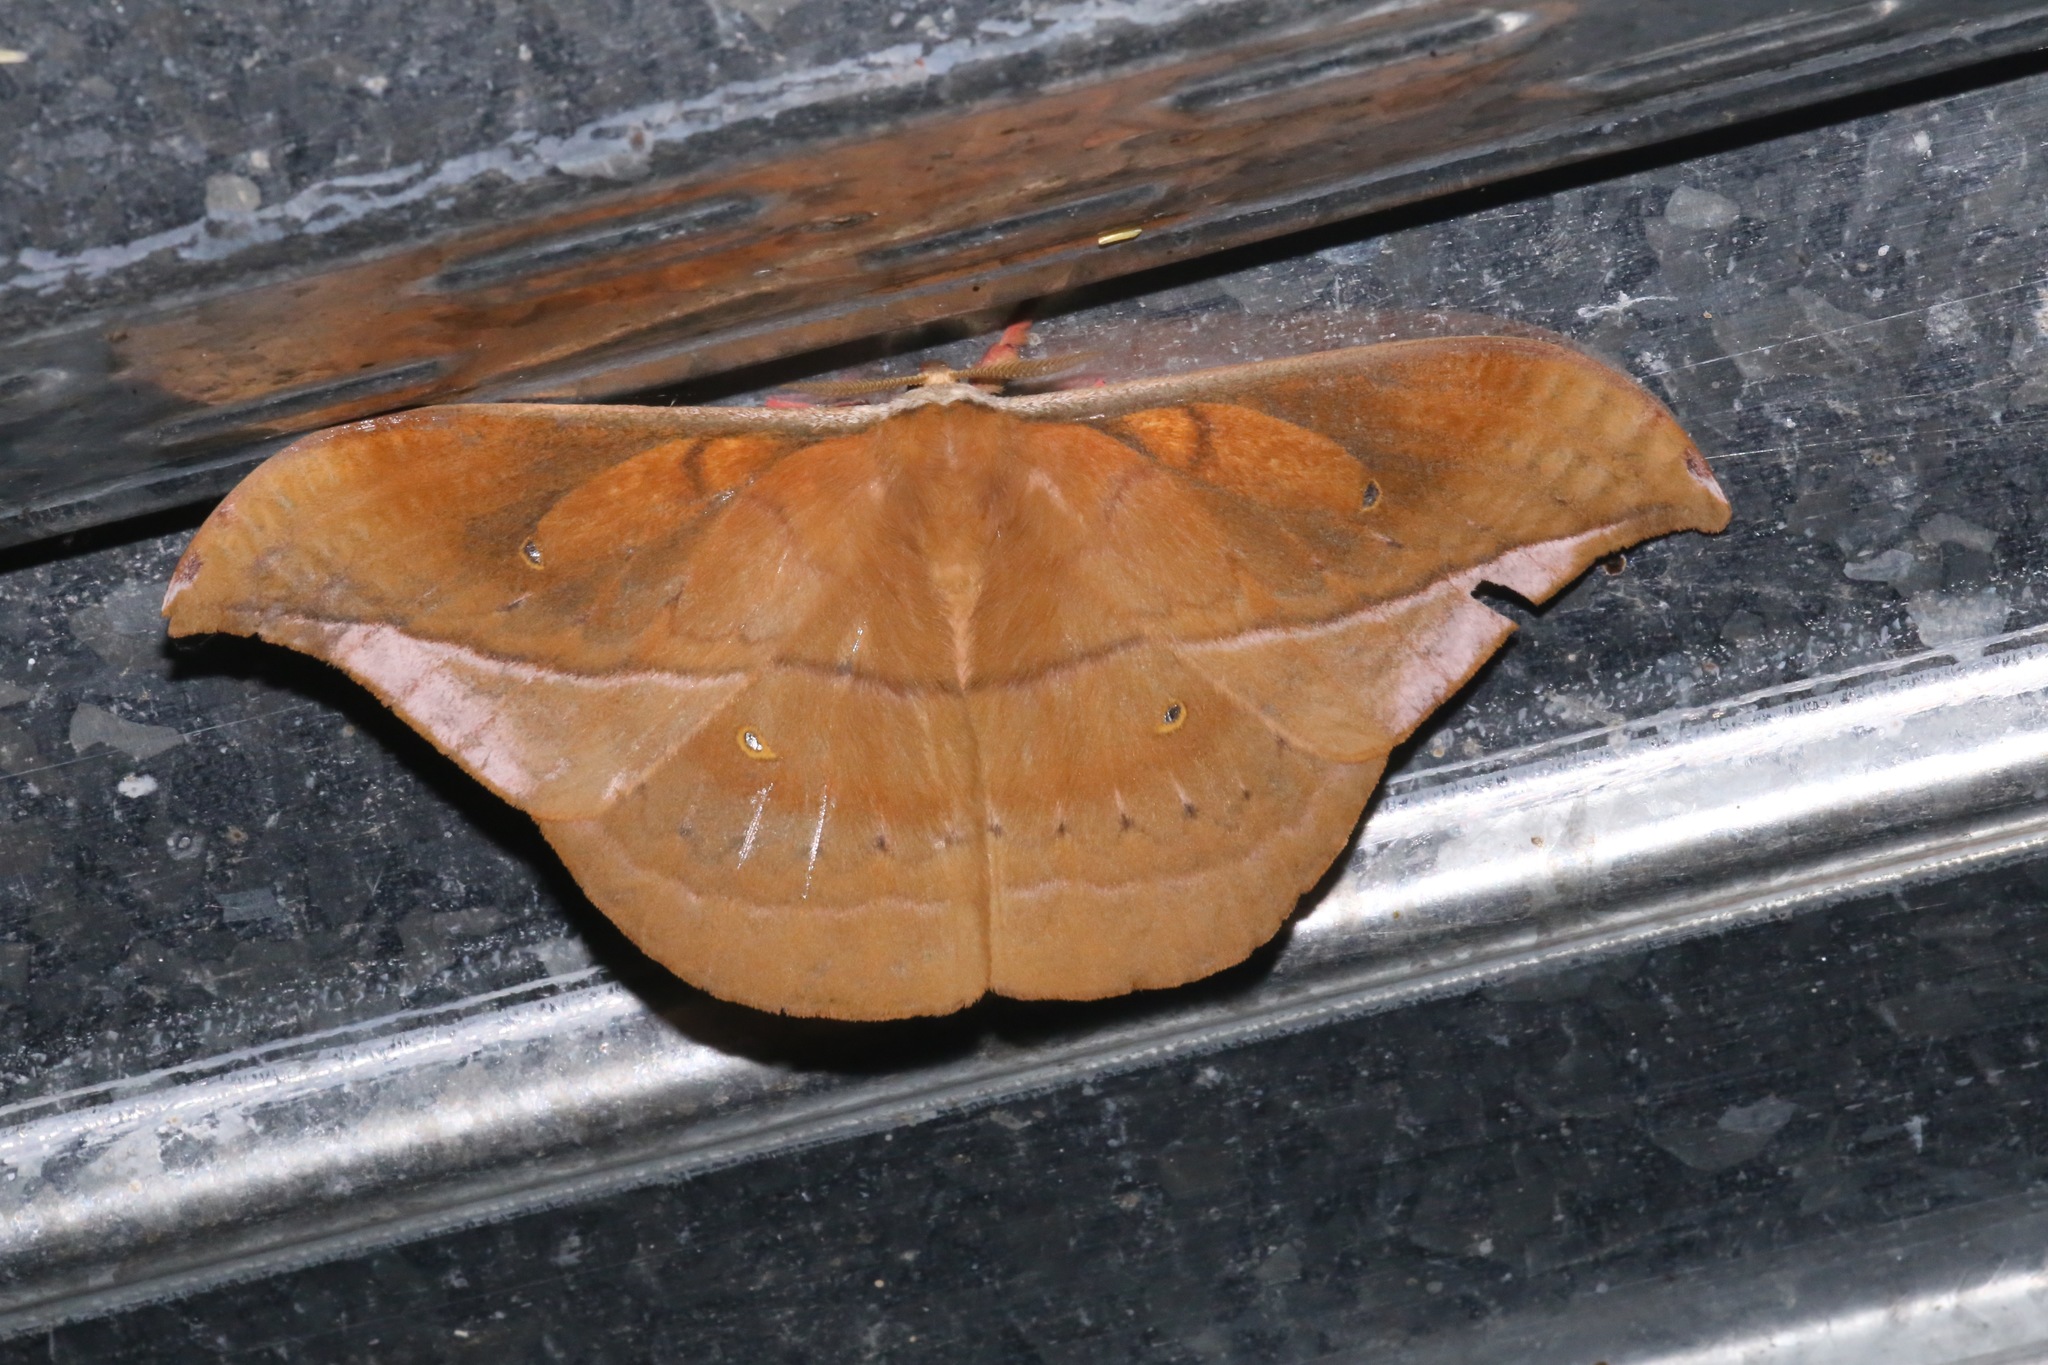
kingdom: Animalia
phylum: Arthropoda
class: Insecta
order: Lepidoptera
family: Saturniidae
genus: Copaxa
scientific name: Copaxa rufinans
